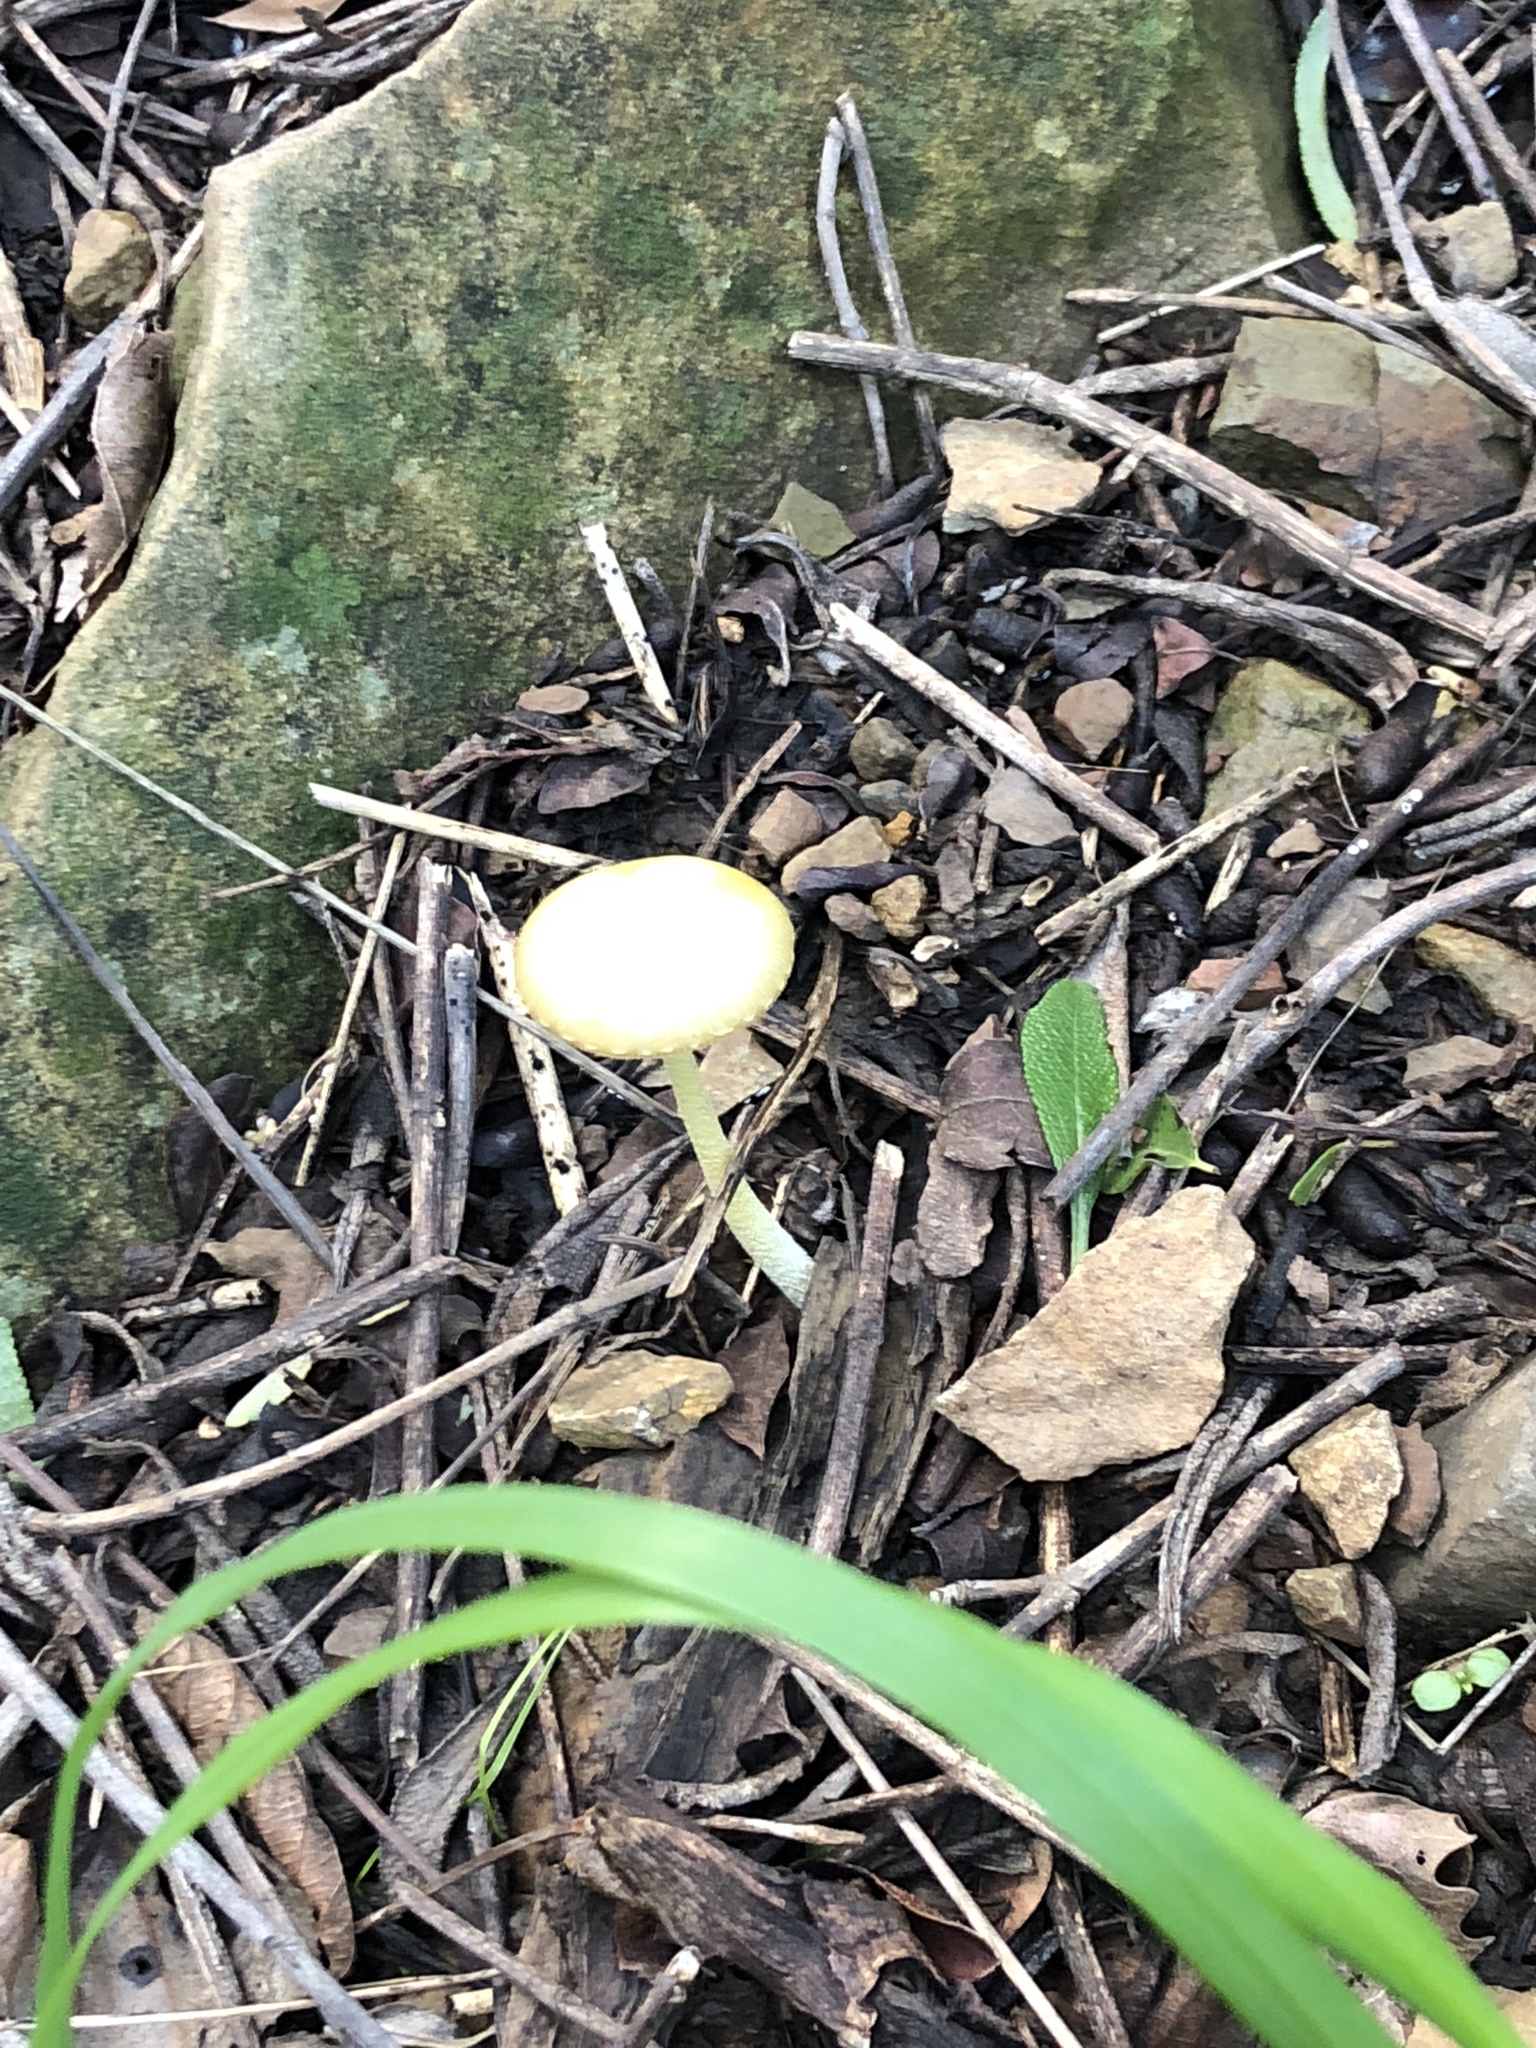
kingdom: Fungi
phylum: Basidiomycota
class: Agaricomycetes
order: Agaricales
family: Bolbitiaceae
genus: Bolbitius
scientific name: Bolbitius titubans
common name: Yellow fieldcap
